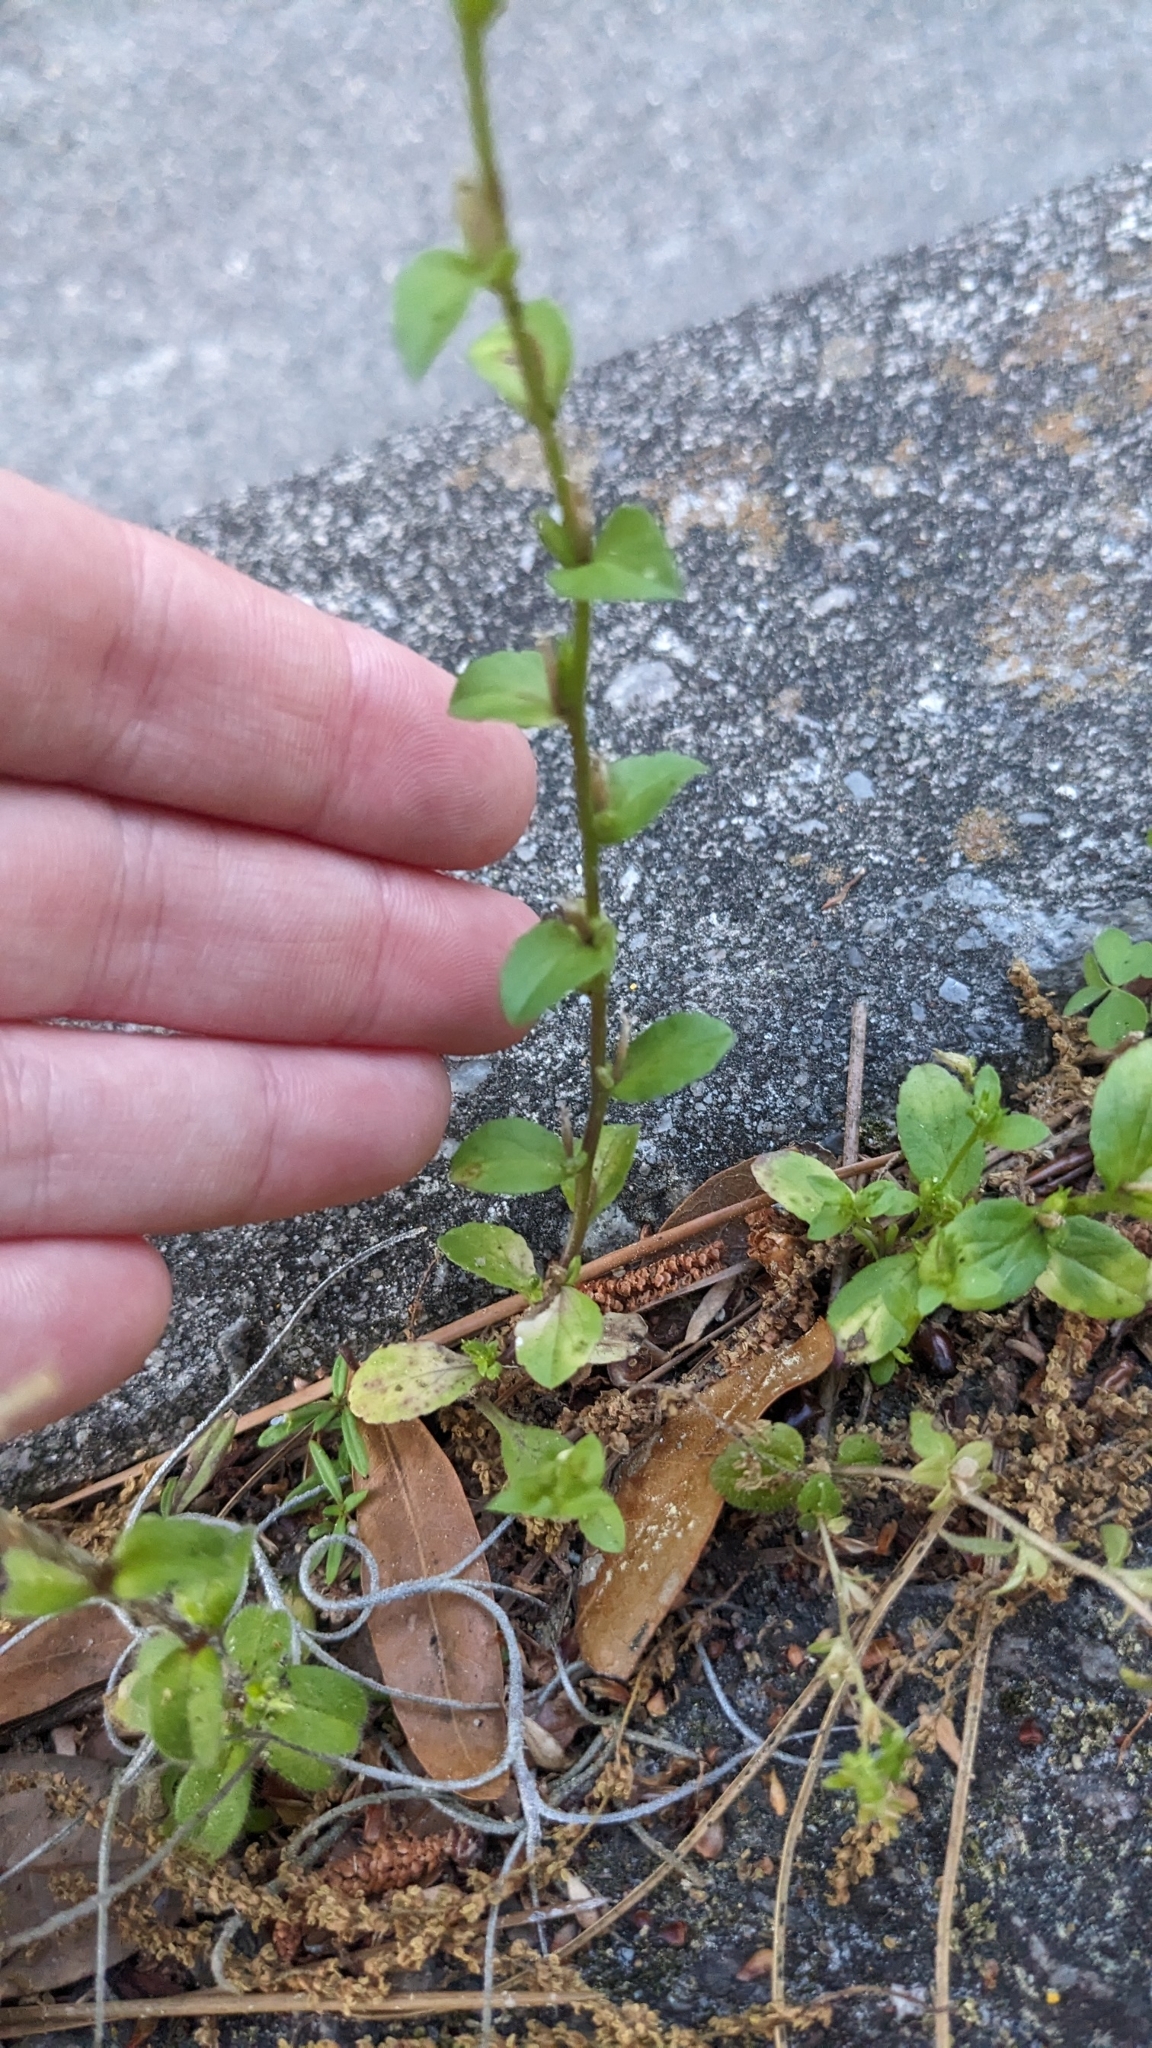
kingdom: Plantae
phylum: Tracheophyta
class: Magnoliopsida
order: Asterales
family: Campanulaceae
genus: Triodanis
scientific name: Triodanis biflora
